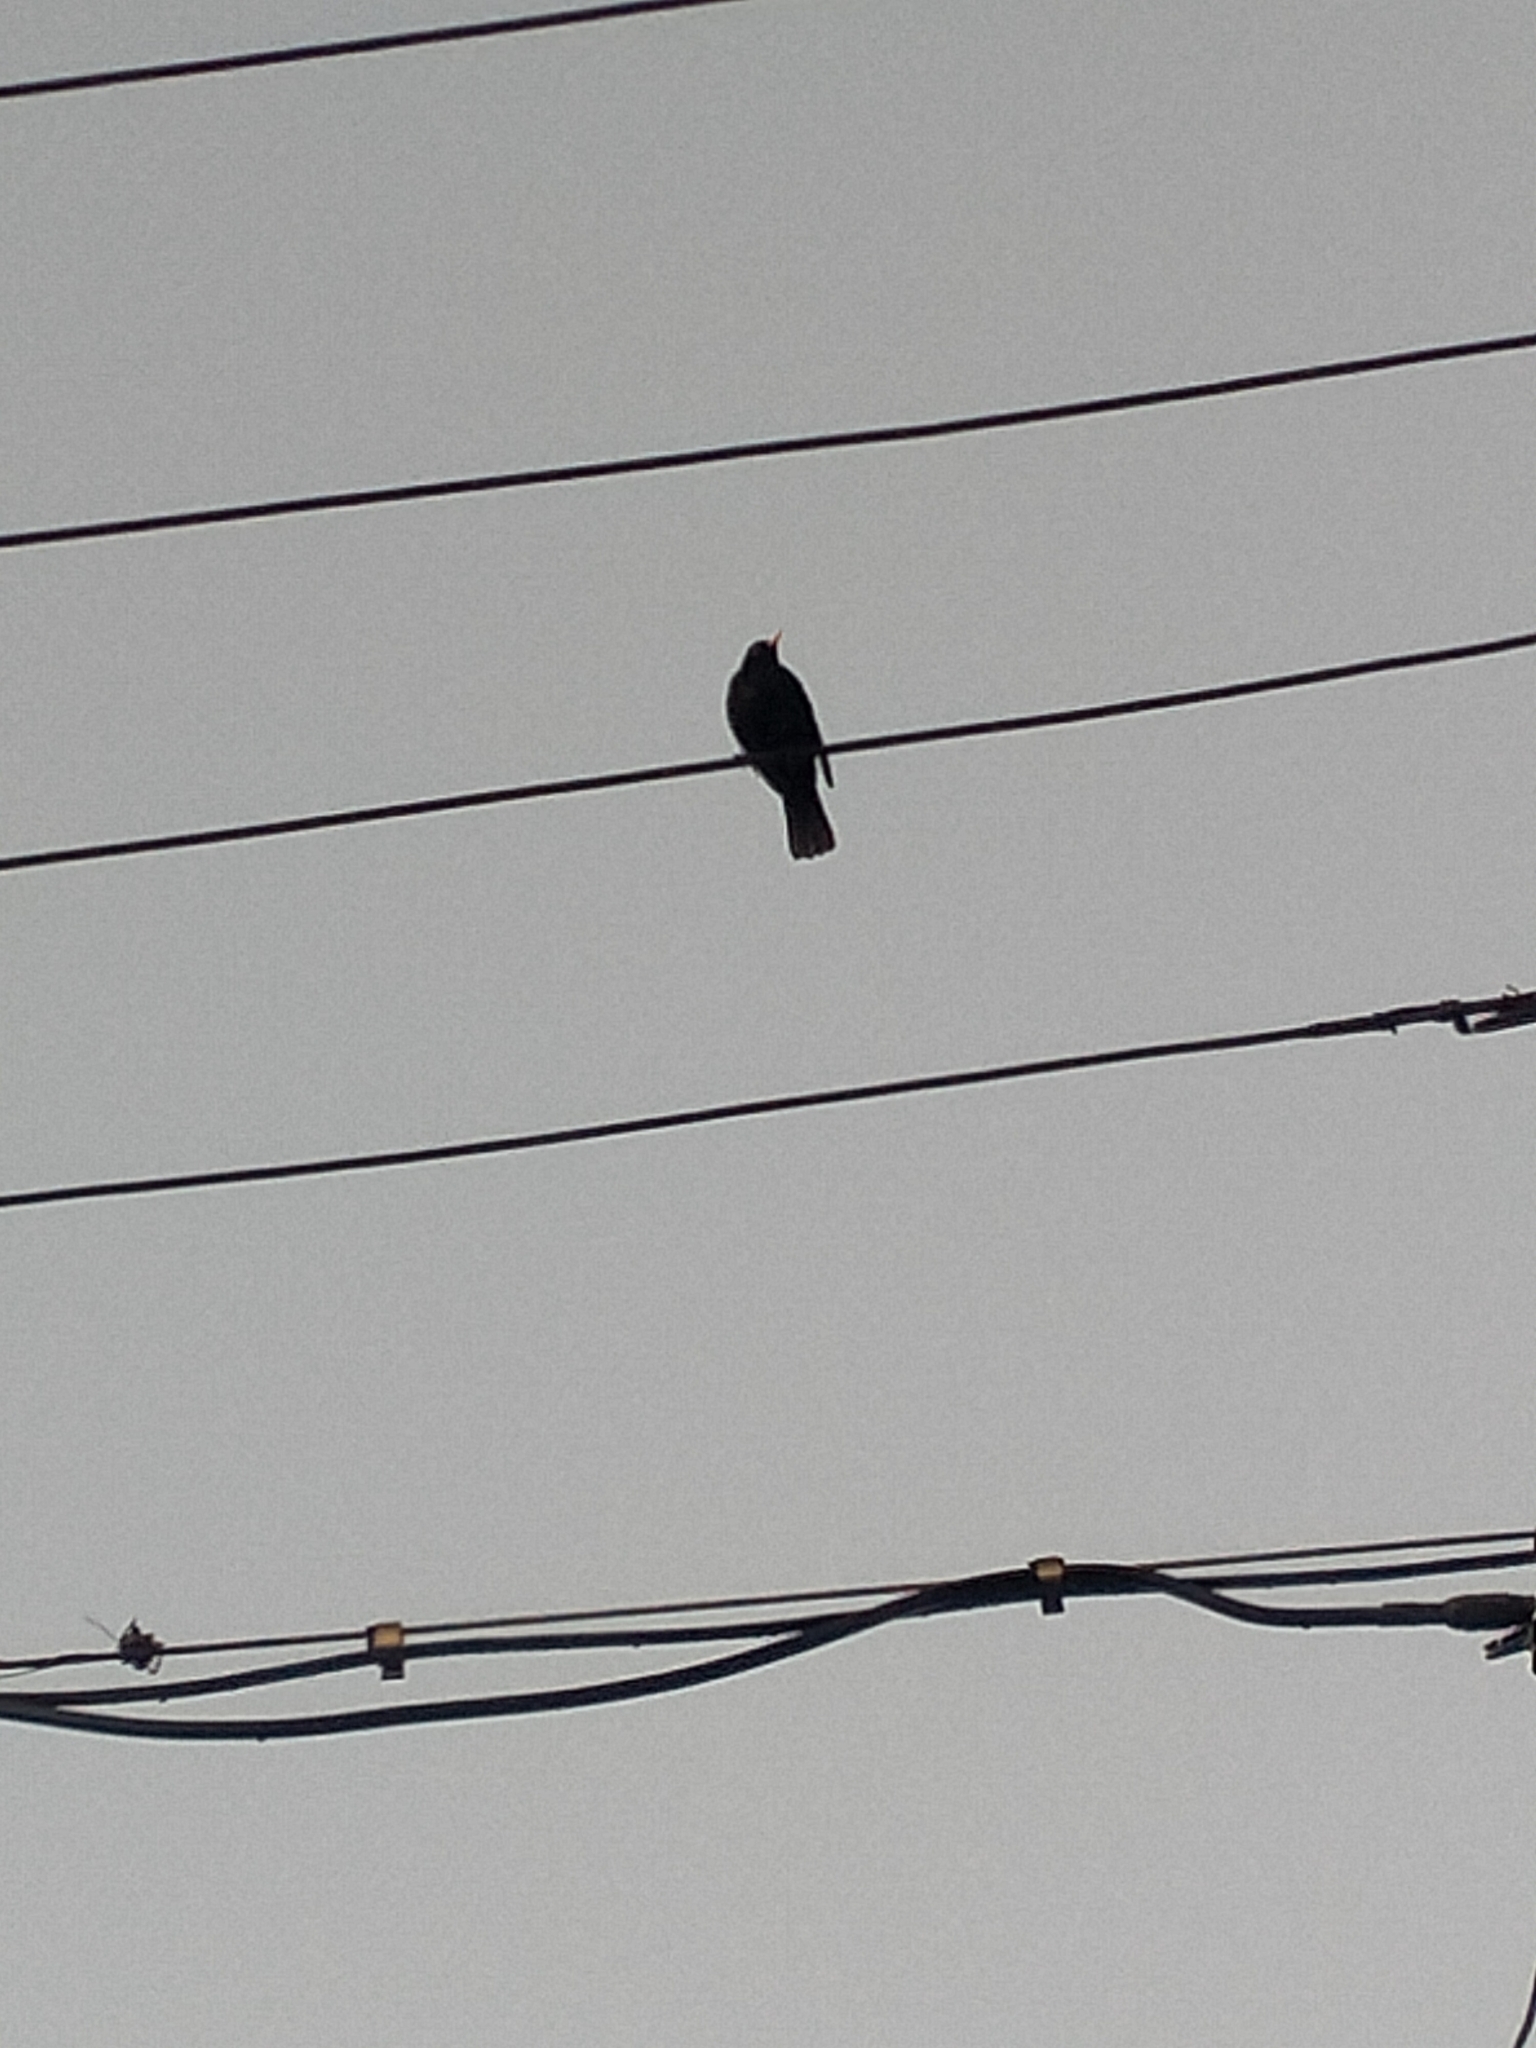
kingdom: Animalia
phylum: Chordata
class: Aves
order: Passeriformes
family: Turdidae
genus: Turdus
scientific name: Turdus merula
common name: Common blackbird
